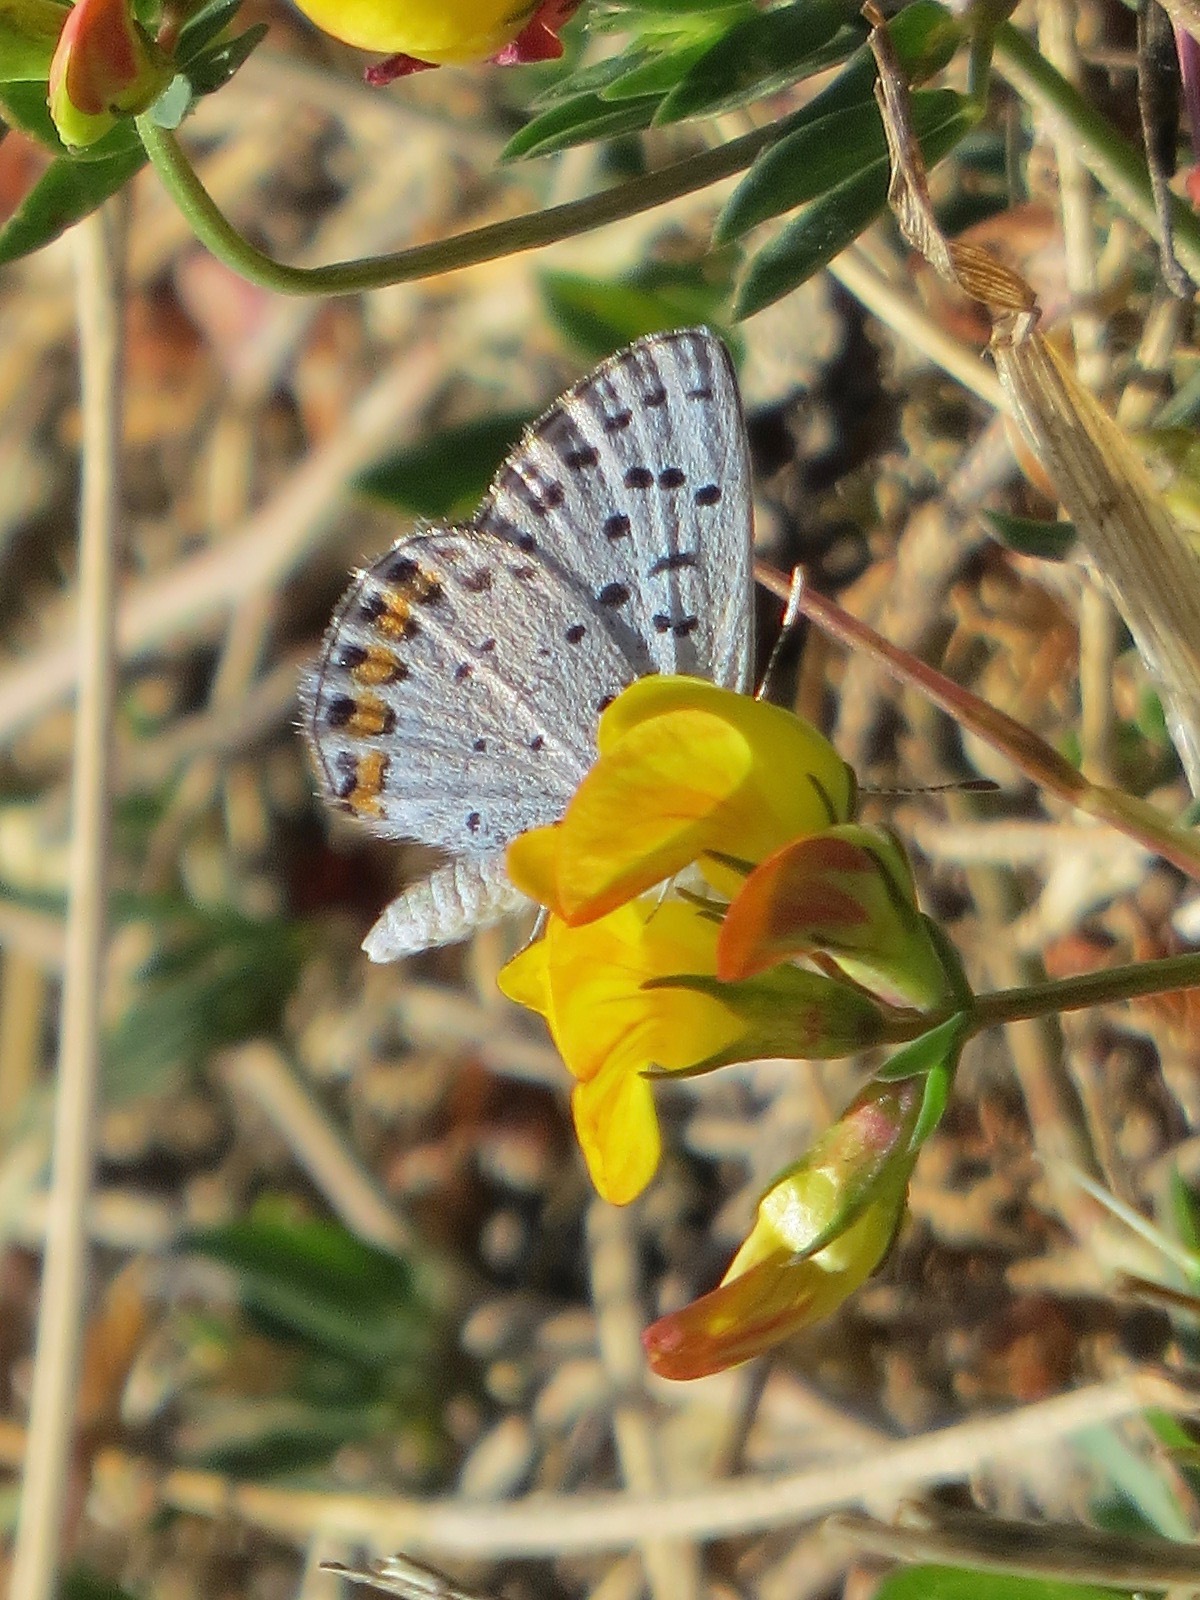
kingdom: Animalia
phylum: Arthropoda
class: Insecta
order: Lepidoptera
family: Lycaenidae
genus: Icaricia
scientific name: Icaricia acmon
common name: Acmon blue
